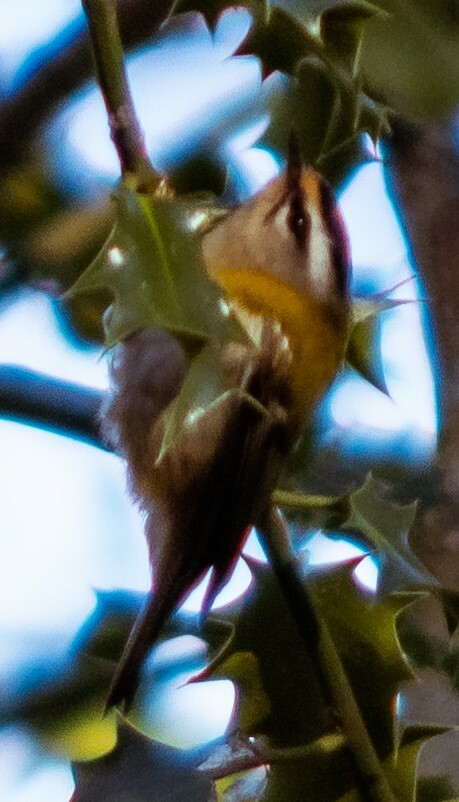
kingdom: Animalia
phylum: Chordata
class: Aves
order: Passeriformes
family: Regulidae
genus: Regulus
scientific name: Regulus ignicapilla
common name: Firecrest
